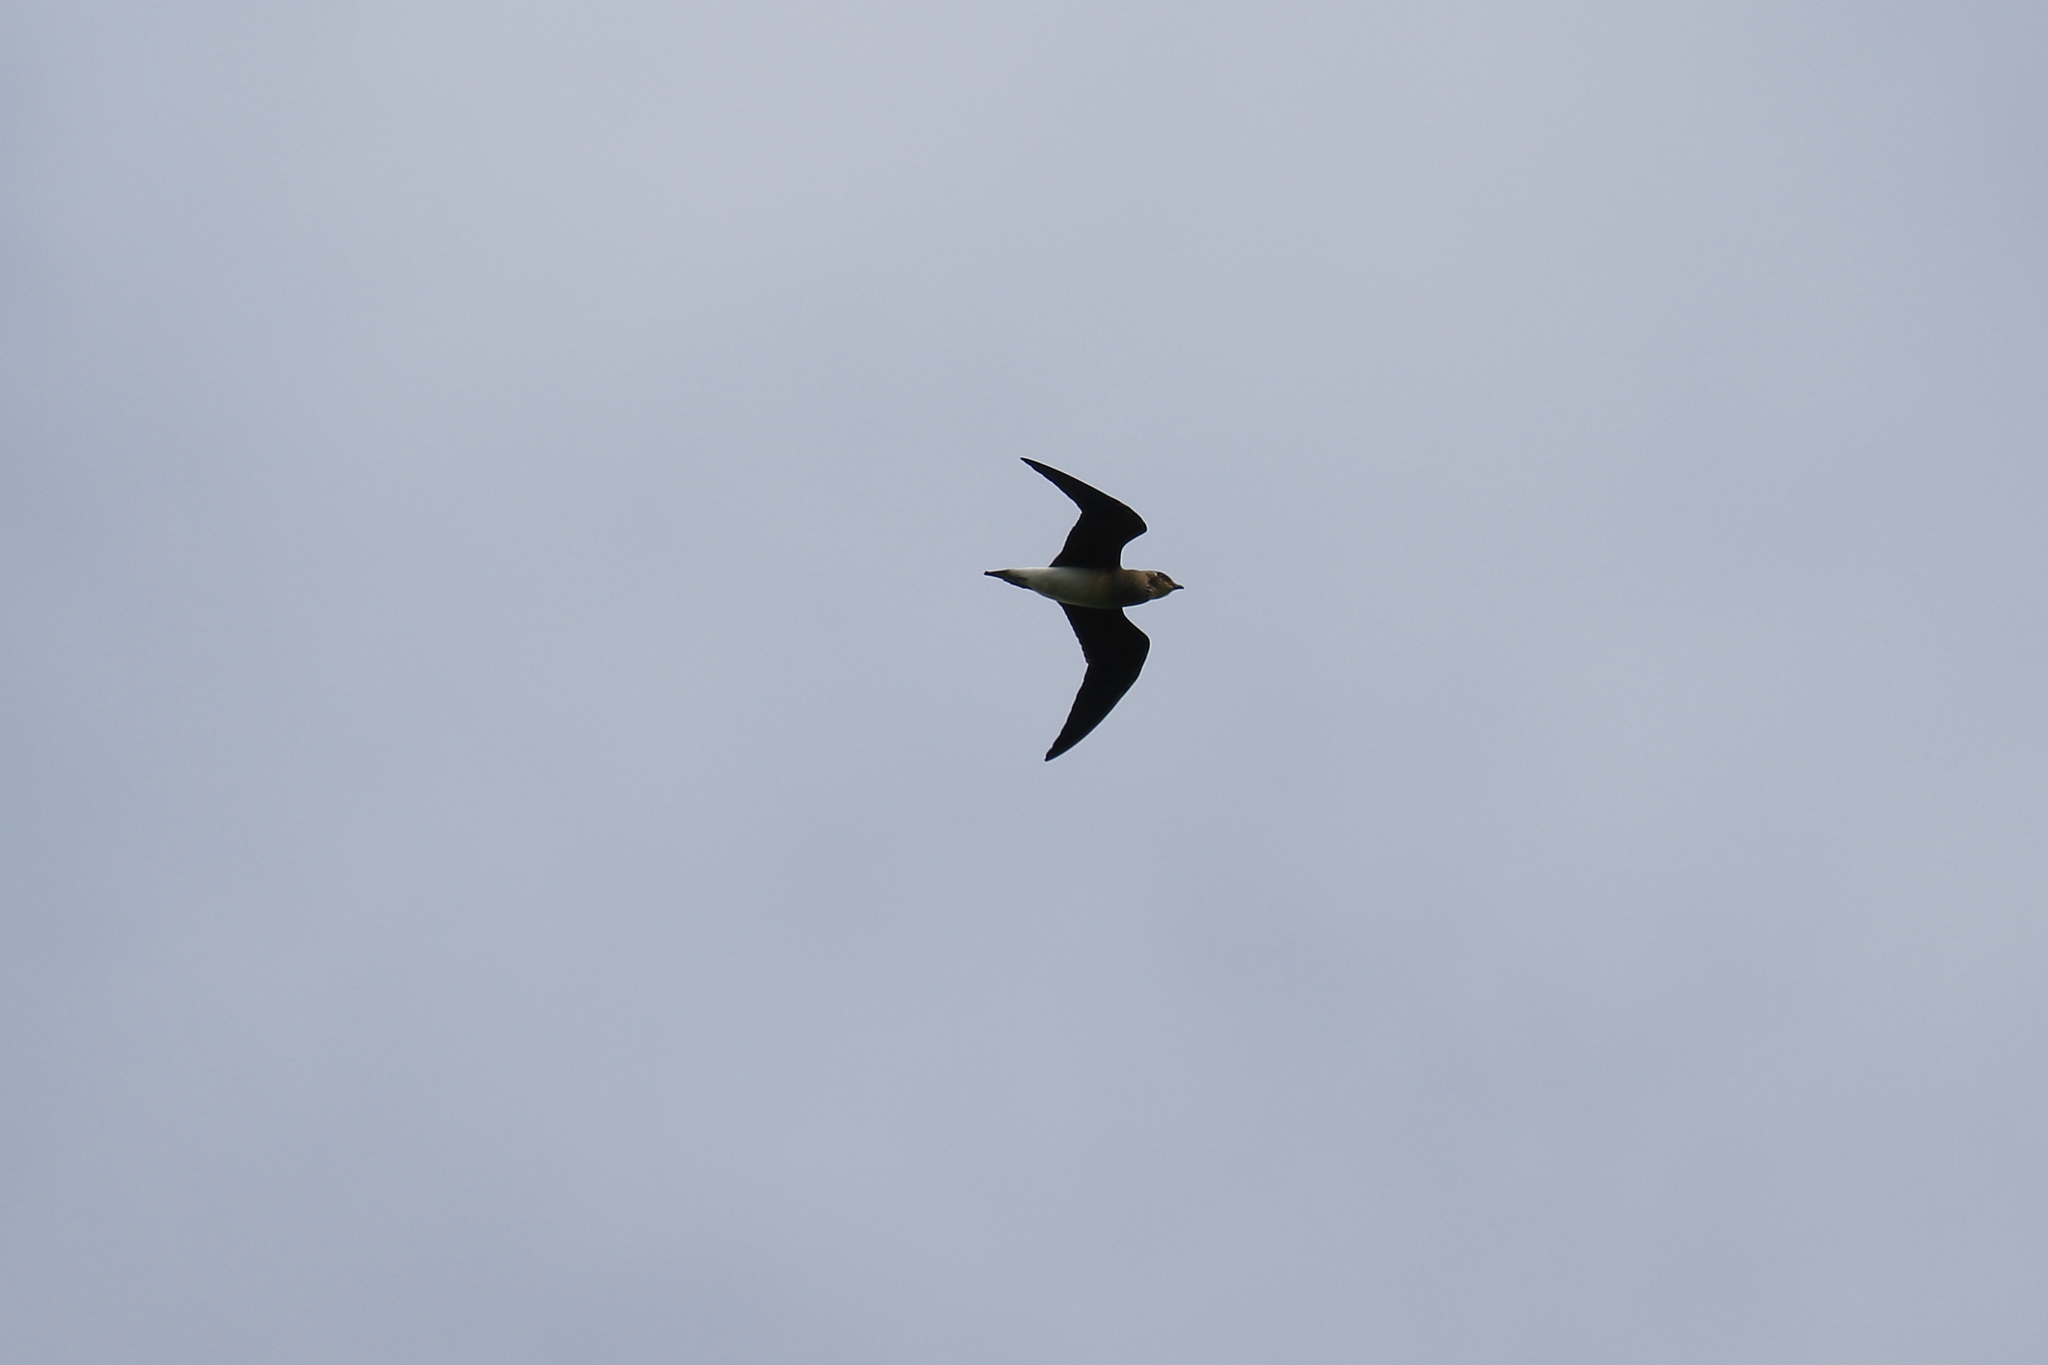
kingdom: Animalia
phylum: Chordata
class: Aves
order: Charadriiformes
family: Glareolidae
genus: Glareola
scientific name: Glareola maldivarum
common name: Oriental pratincole
